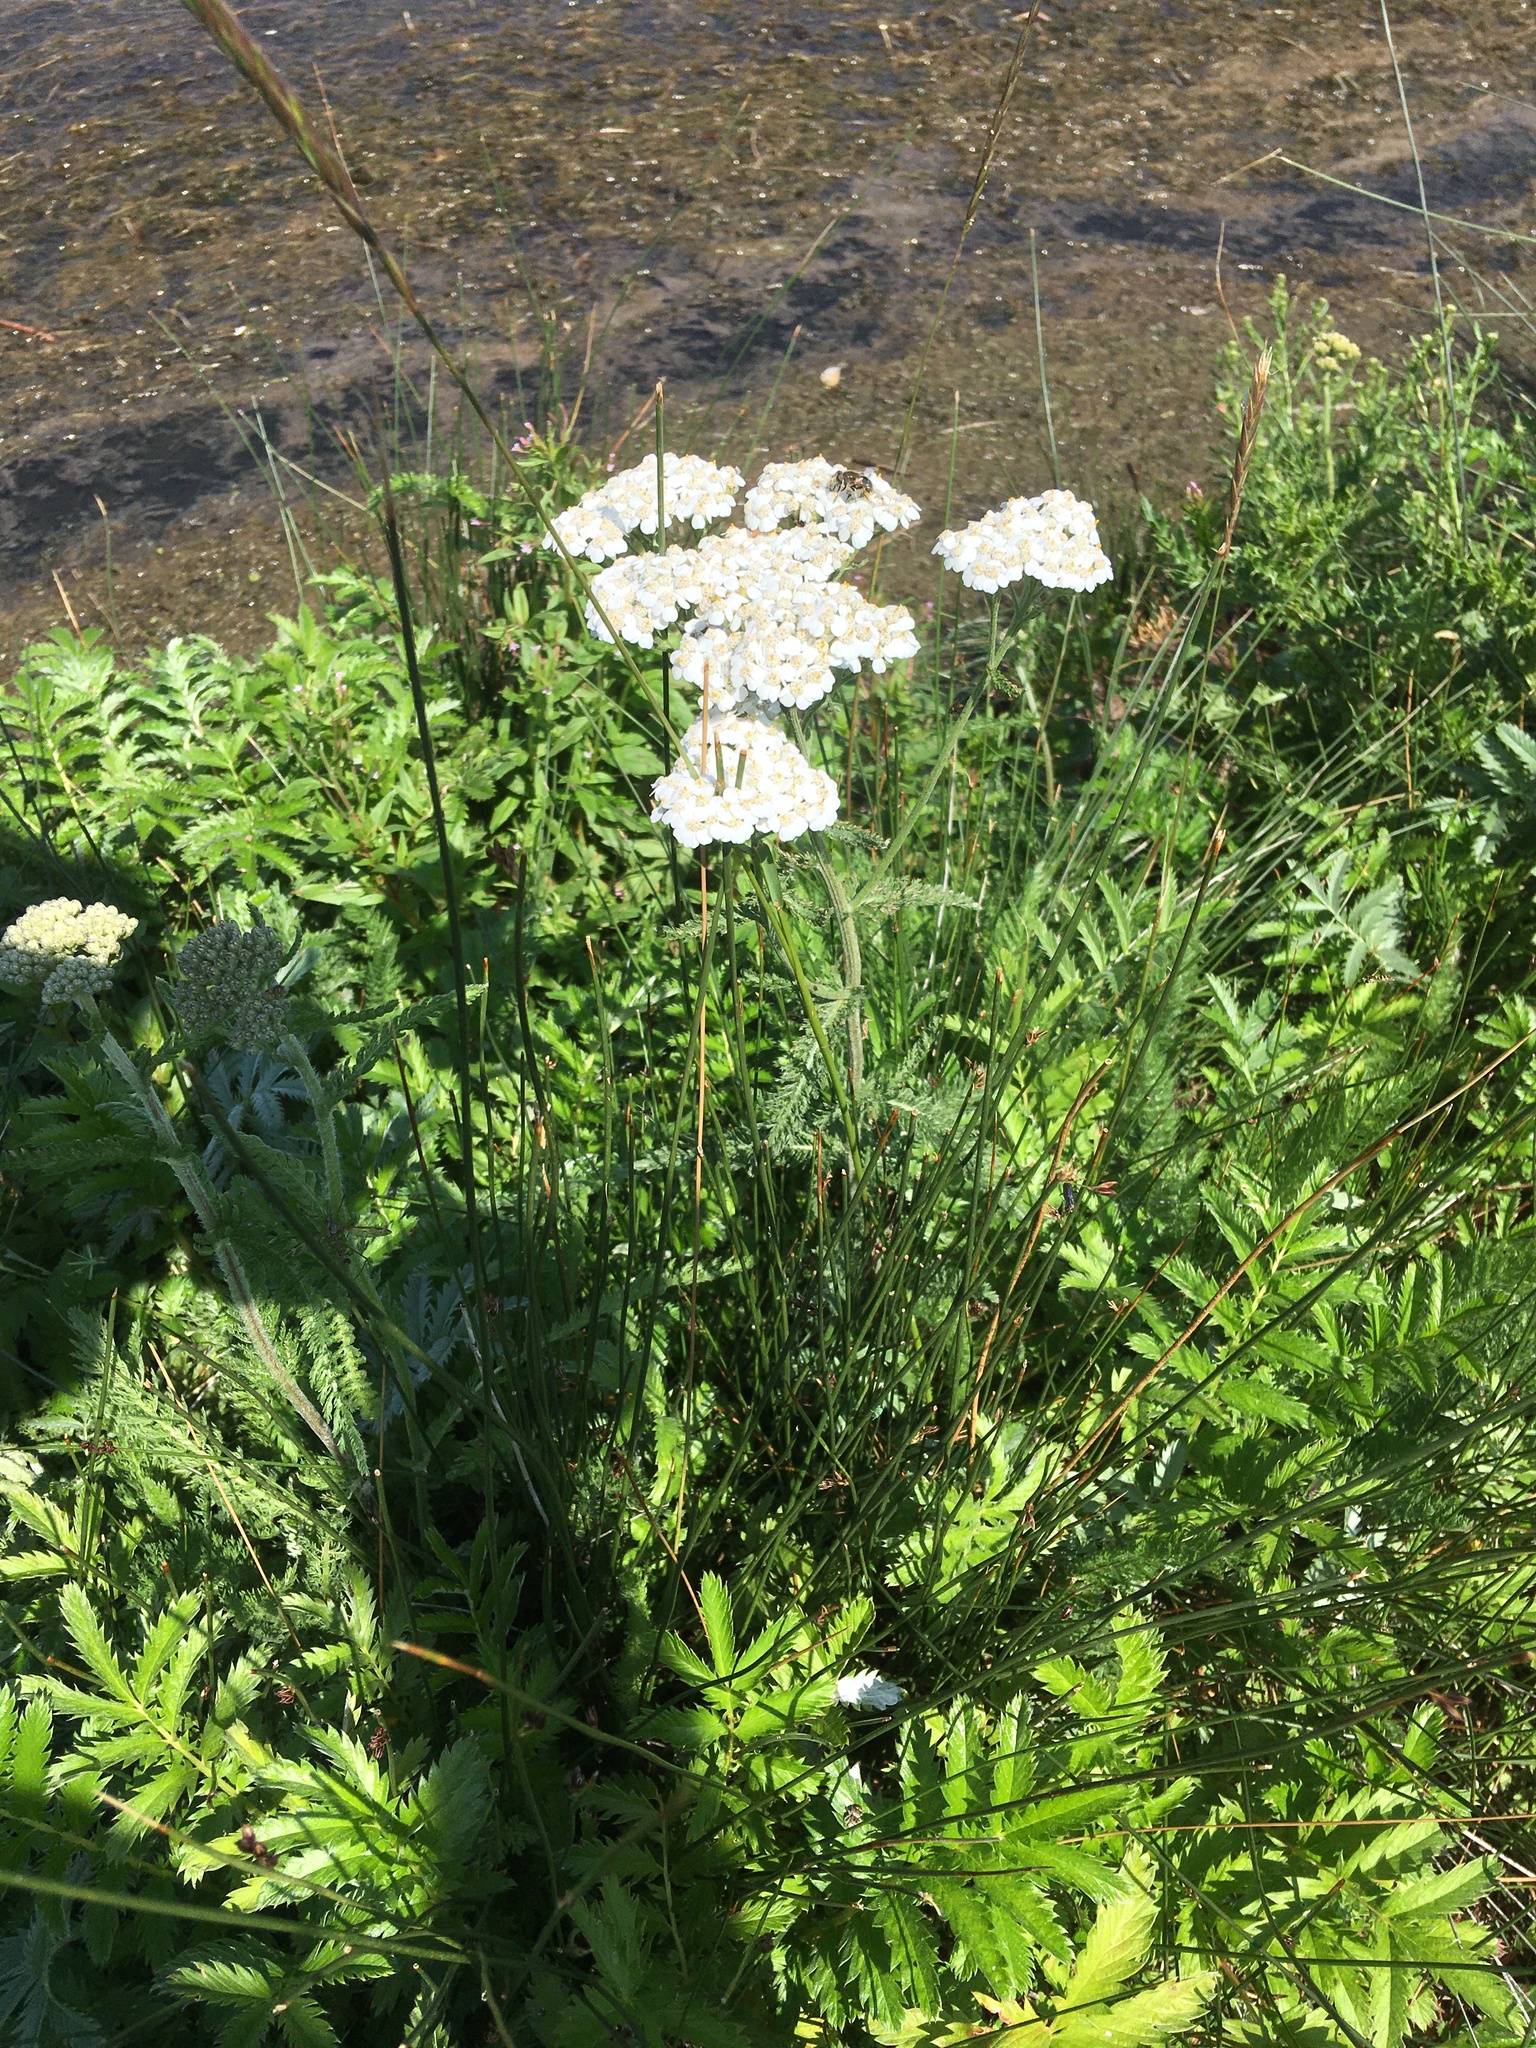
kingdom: Plantae
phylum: Tracheophyta
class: Magnoliopsida
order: Asterales
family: Asteraceae
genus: Achillea
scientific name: Achillea millefolium
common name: Yarrow
